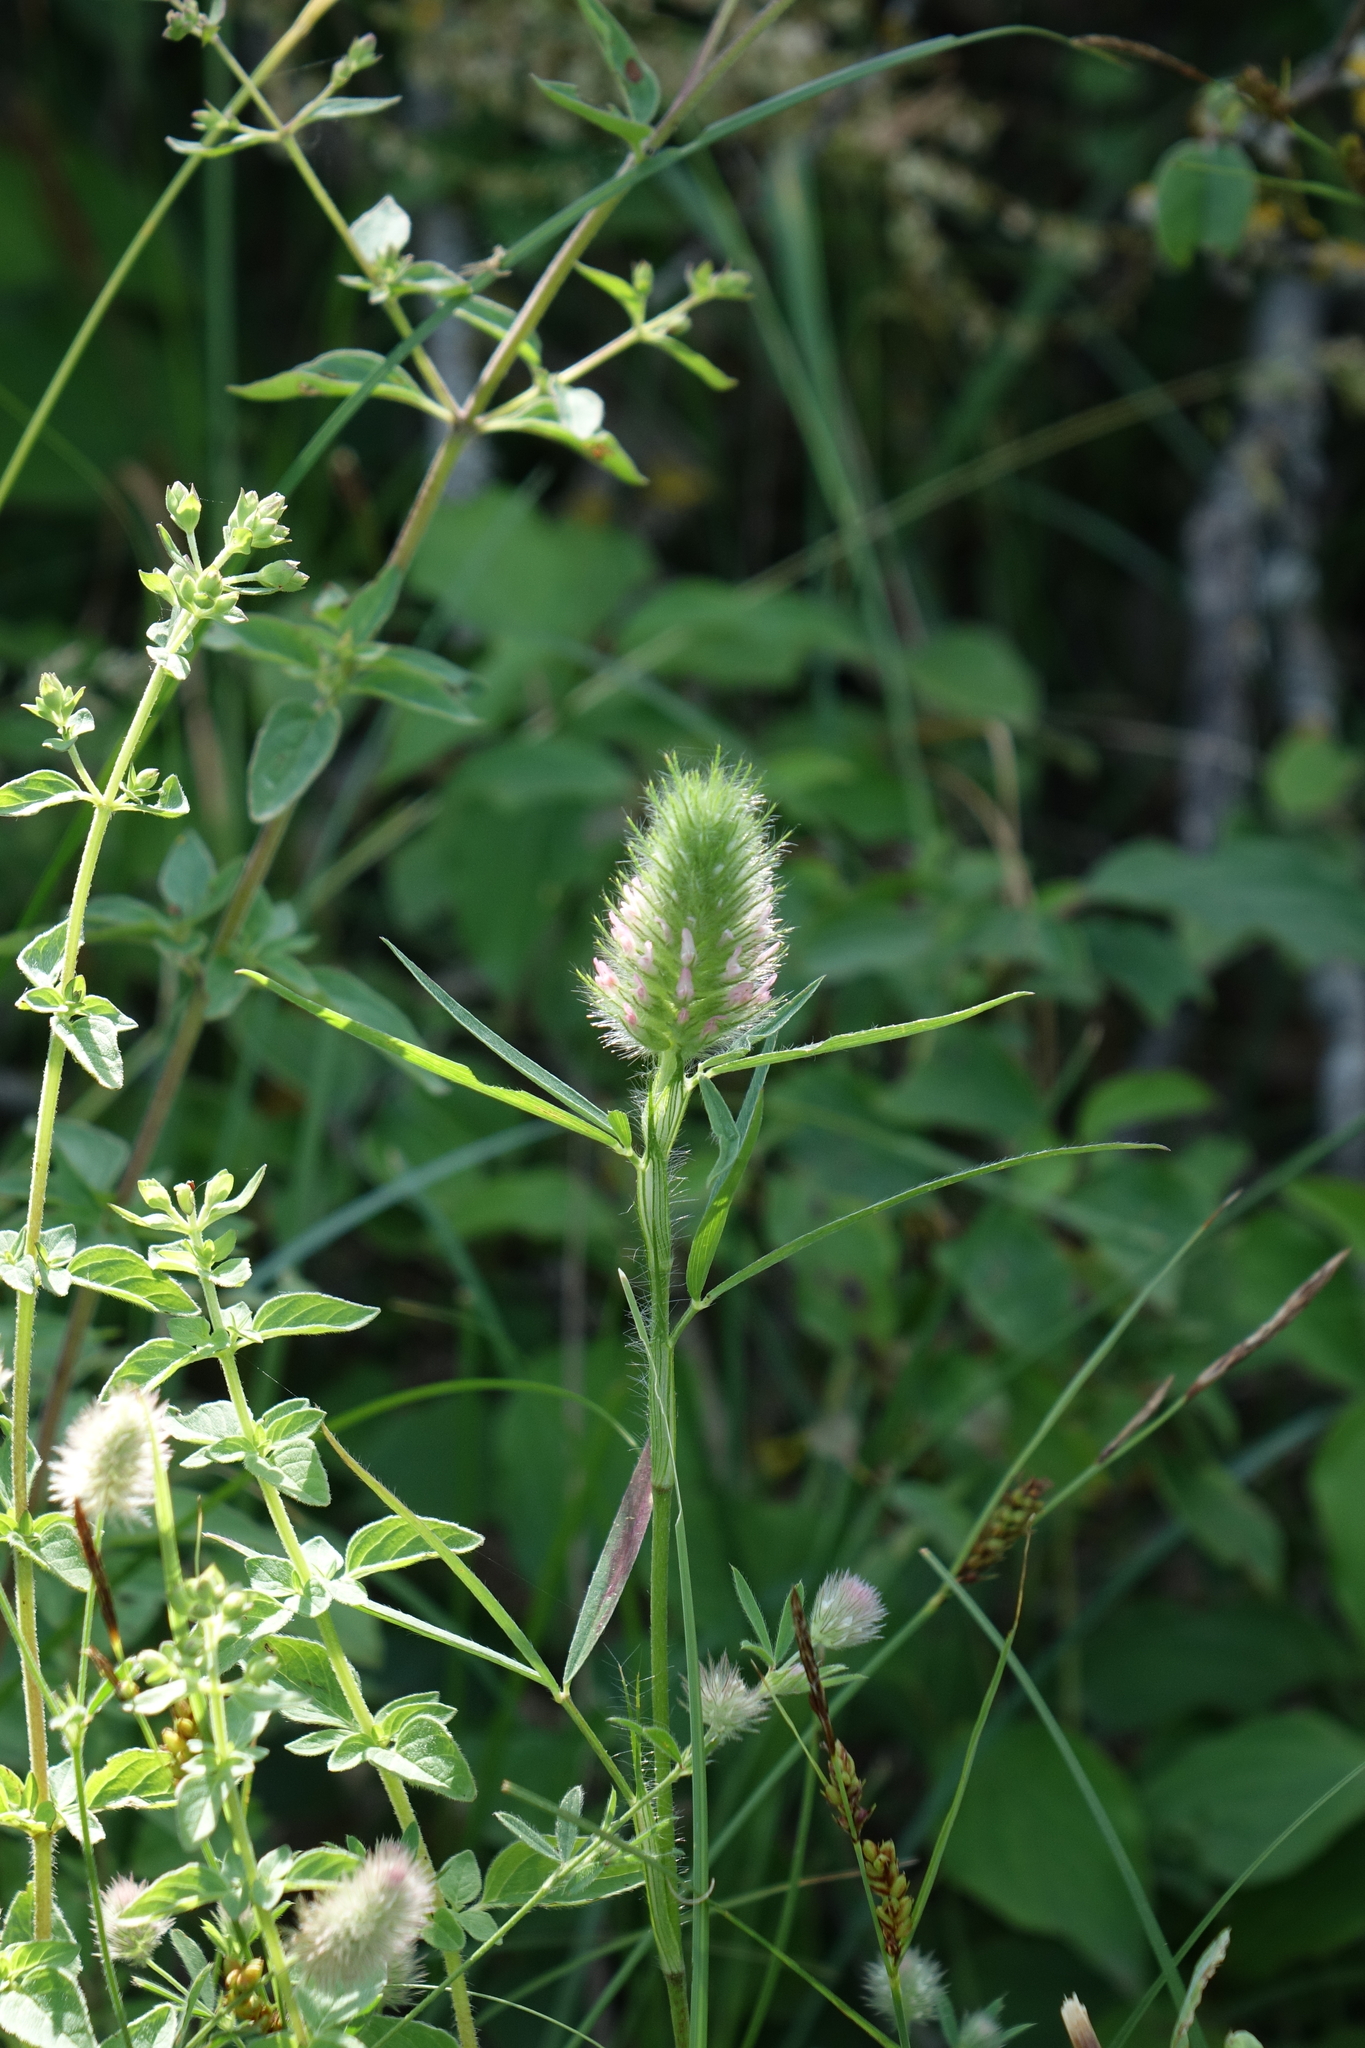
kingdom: Plantae
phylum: Tracheophyta
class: Magnoliopsida
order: Fabales
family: Fabaceae
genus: Trifolium
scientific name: Trifolium angustifolium
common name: Narrow clover
